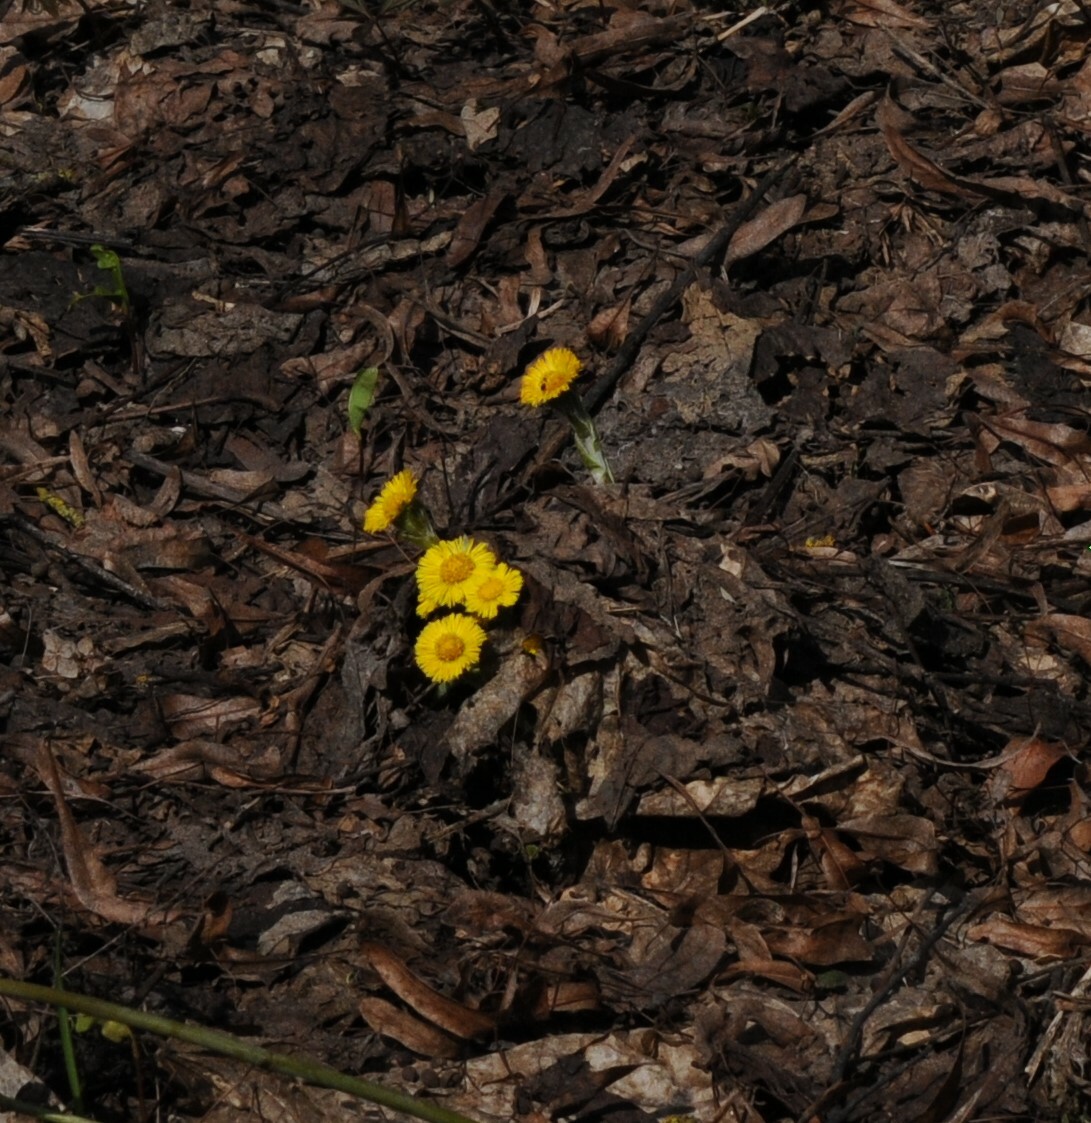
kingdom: Plantae
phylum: Tracheophyta
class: Magnoliopsida
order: Asterales
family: Asteraceae
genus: Tussilago
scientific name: Tussilago farfara
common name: Coltsfoot
